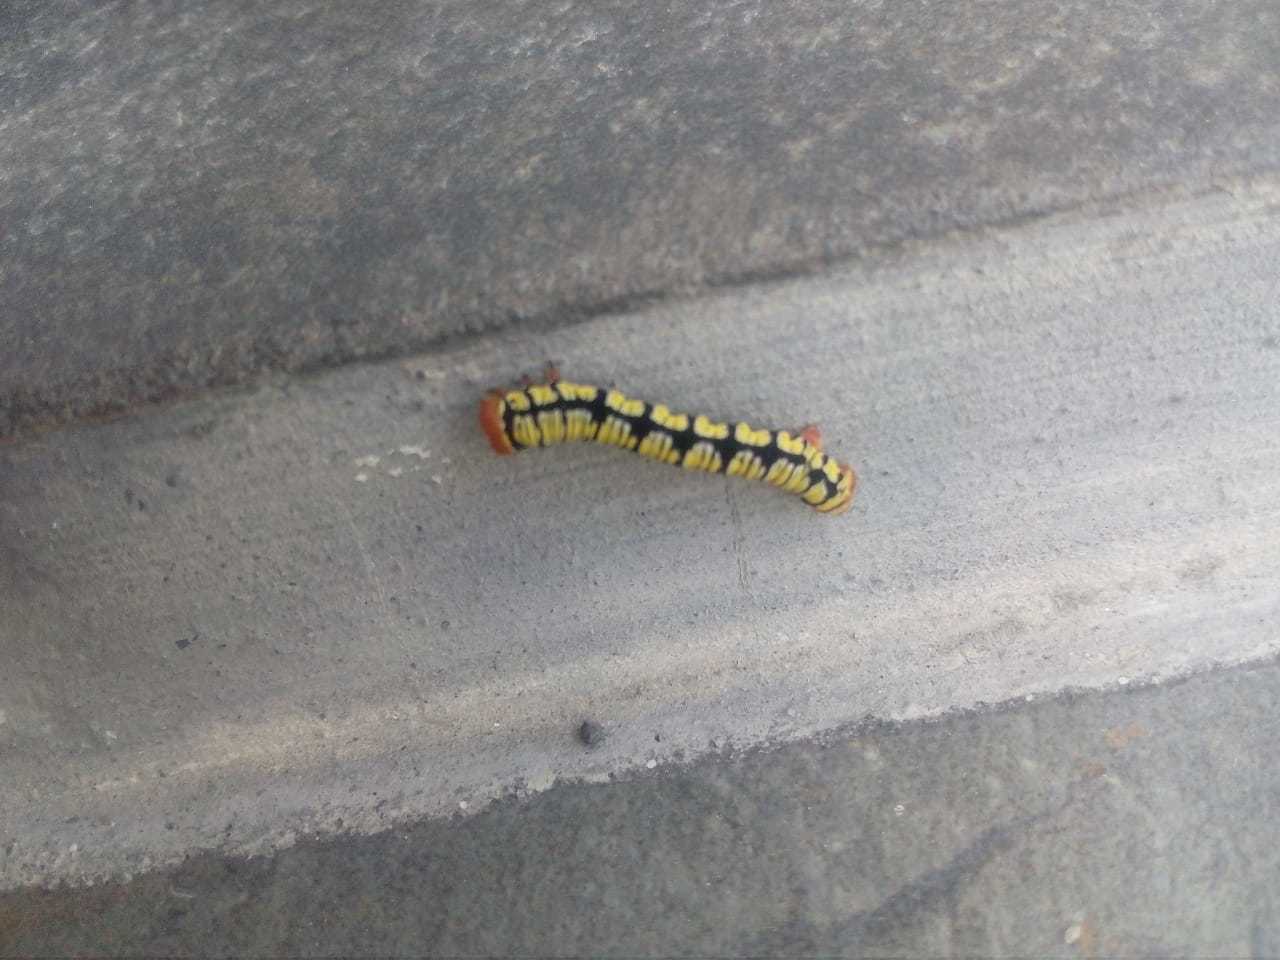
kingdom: Animalia
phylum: Arthropoda
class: Insecta
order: Lepidoptera
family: Geometridae
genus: Melanchroia
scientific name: Melanchroia chephise
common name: White-tipped black
